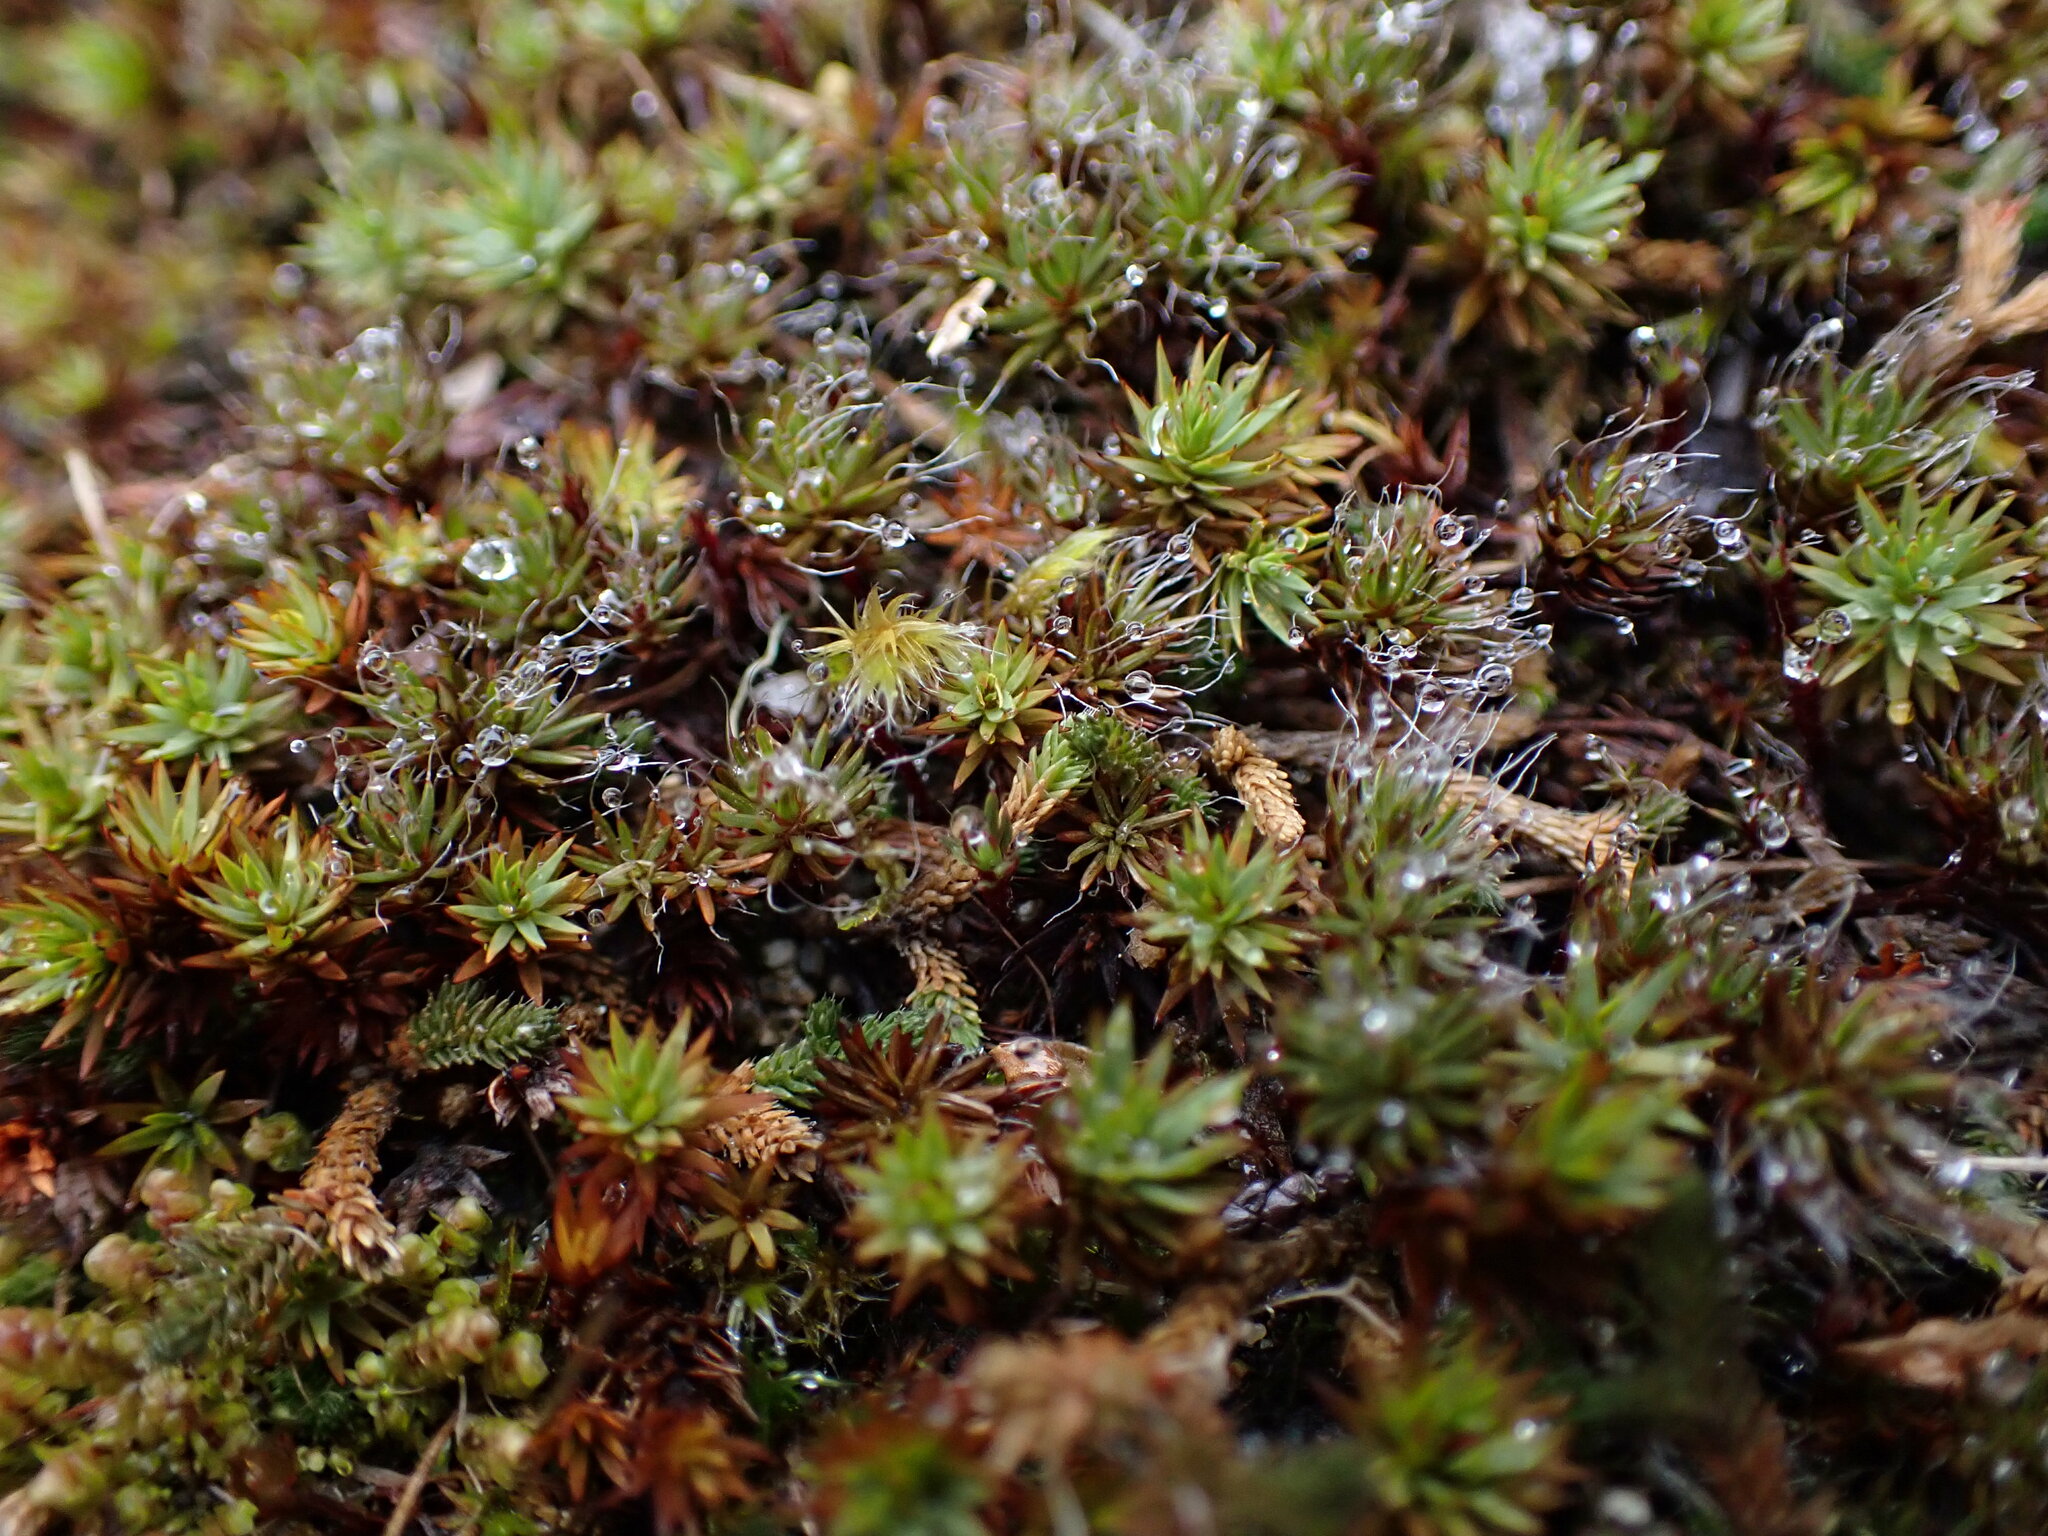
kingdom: Plantae
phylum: Bryophyta
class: Polytrichopsida
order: Polytrichales
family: Polytrichaceae
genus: Polytrichum
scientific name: Polytrichum piliferum
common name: Bristly haircap
